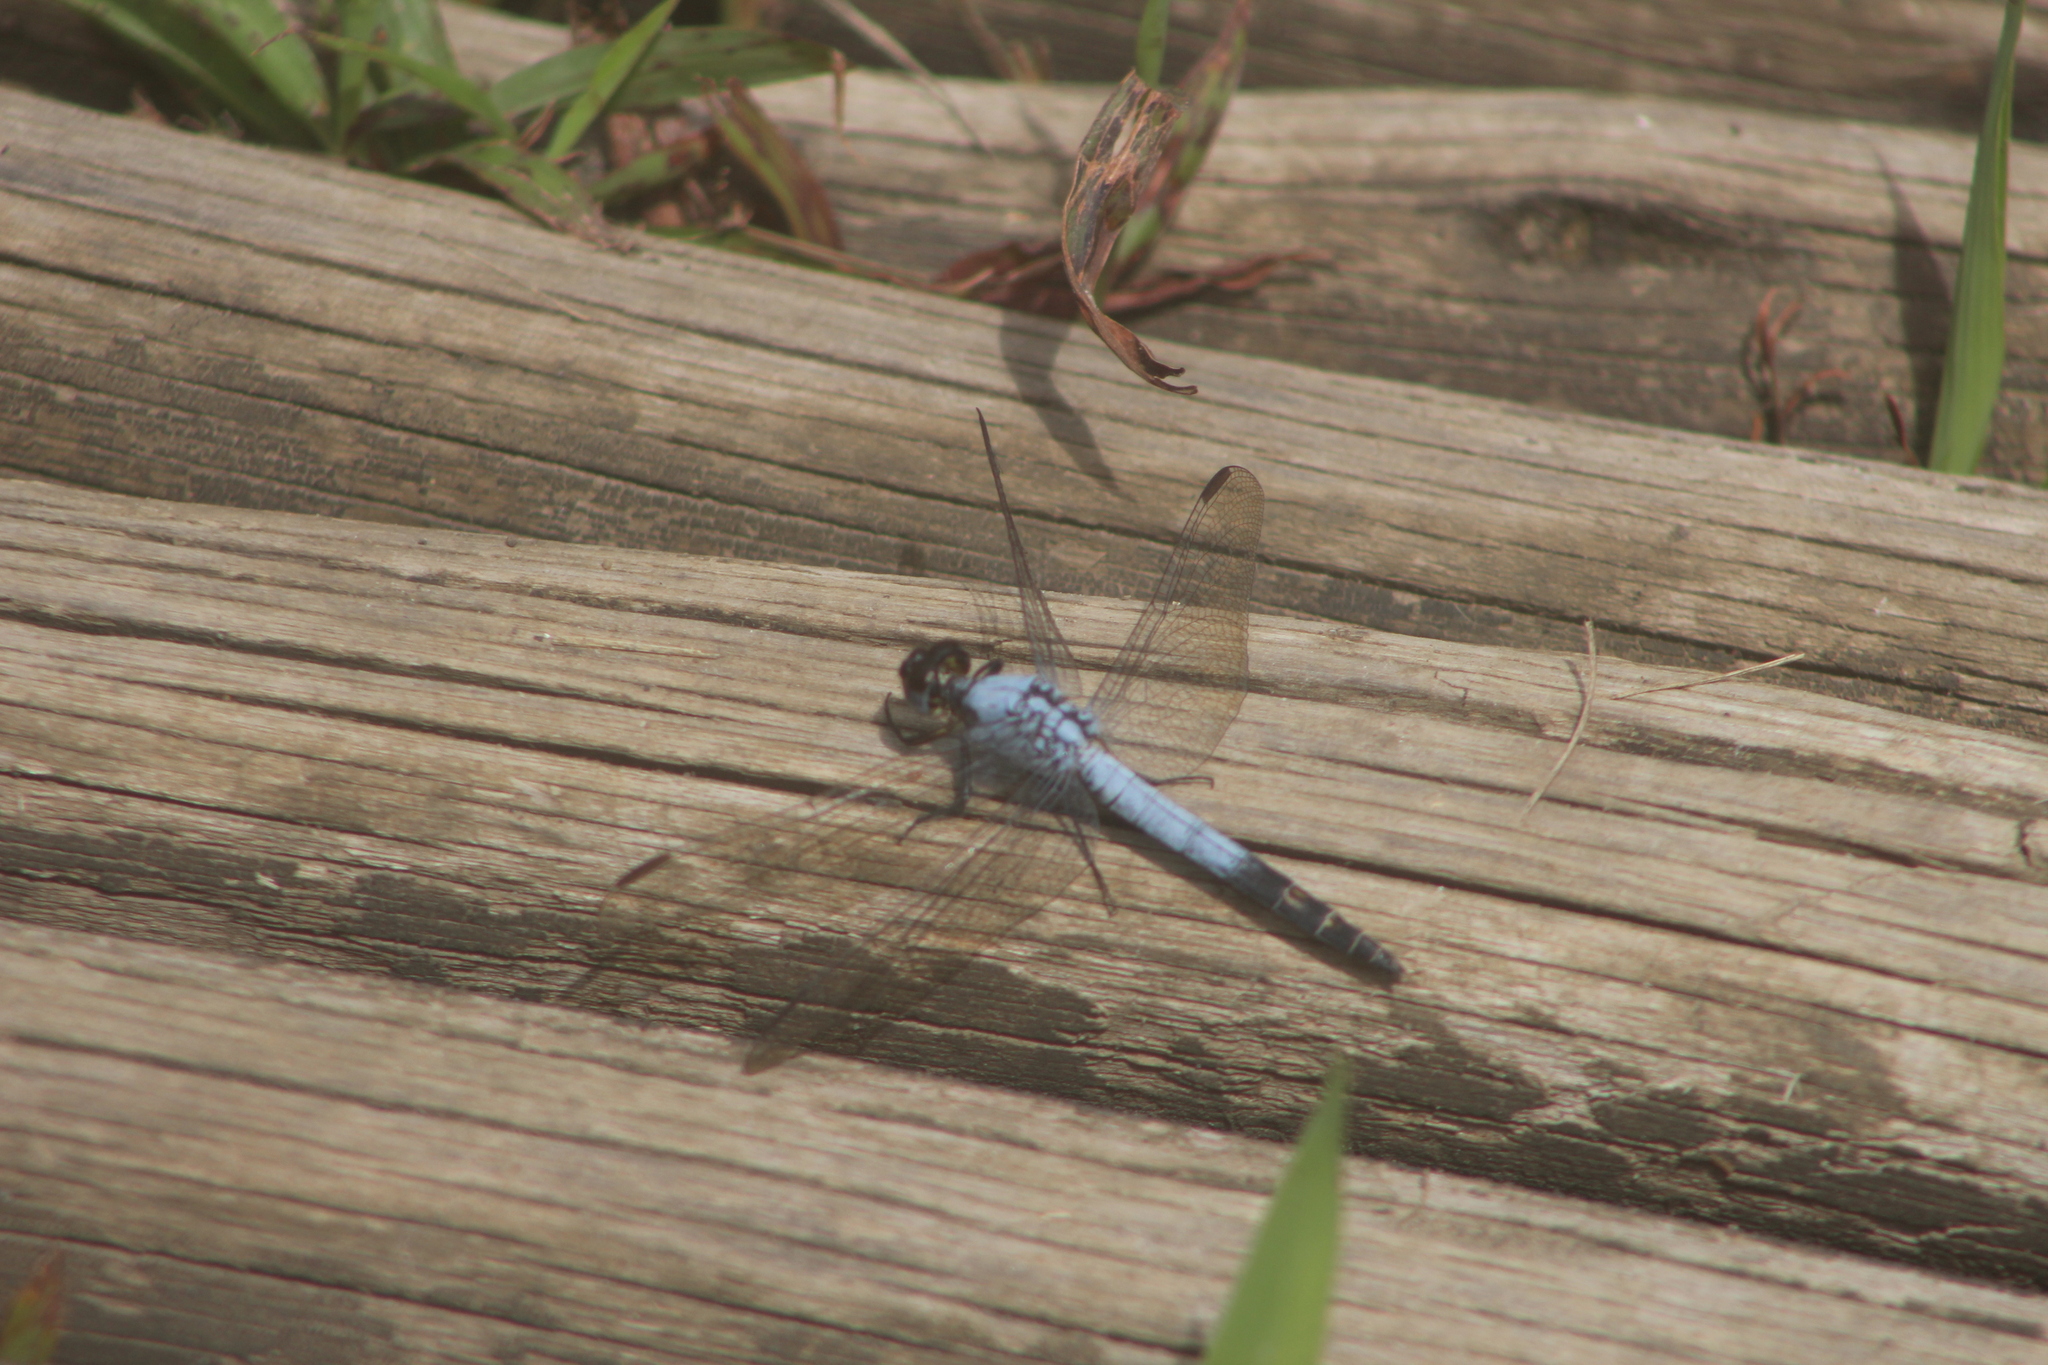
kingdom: Animalia
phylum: Arthropoda
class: Insecta
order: Odonata
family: Libellulidae
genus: Nesciothemis
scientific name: Nesciothemis farinosa
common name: Eastern blacktail
